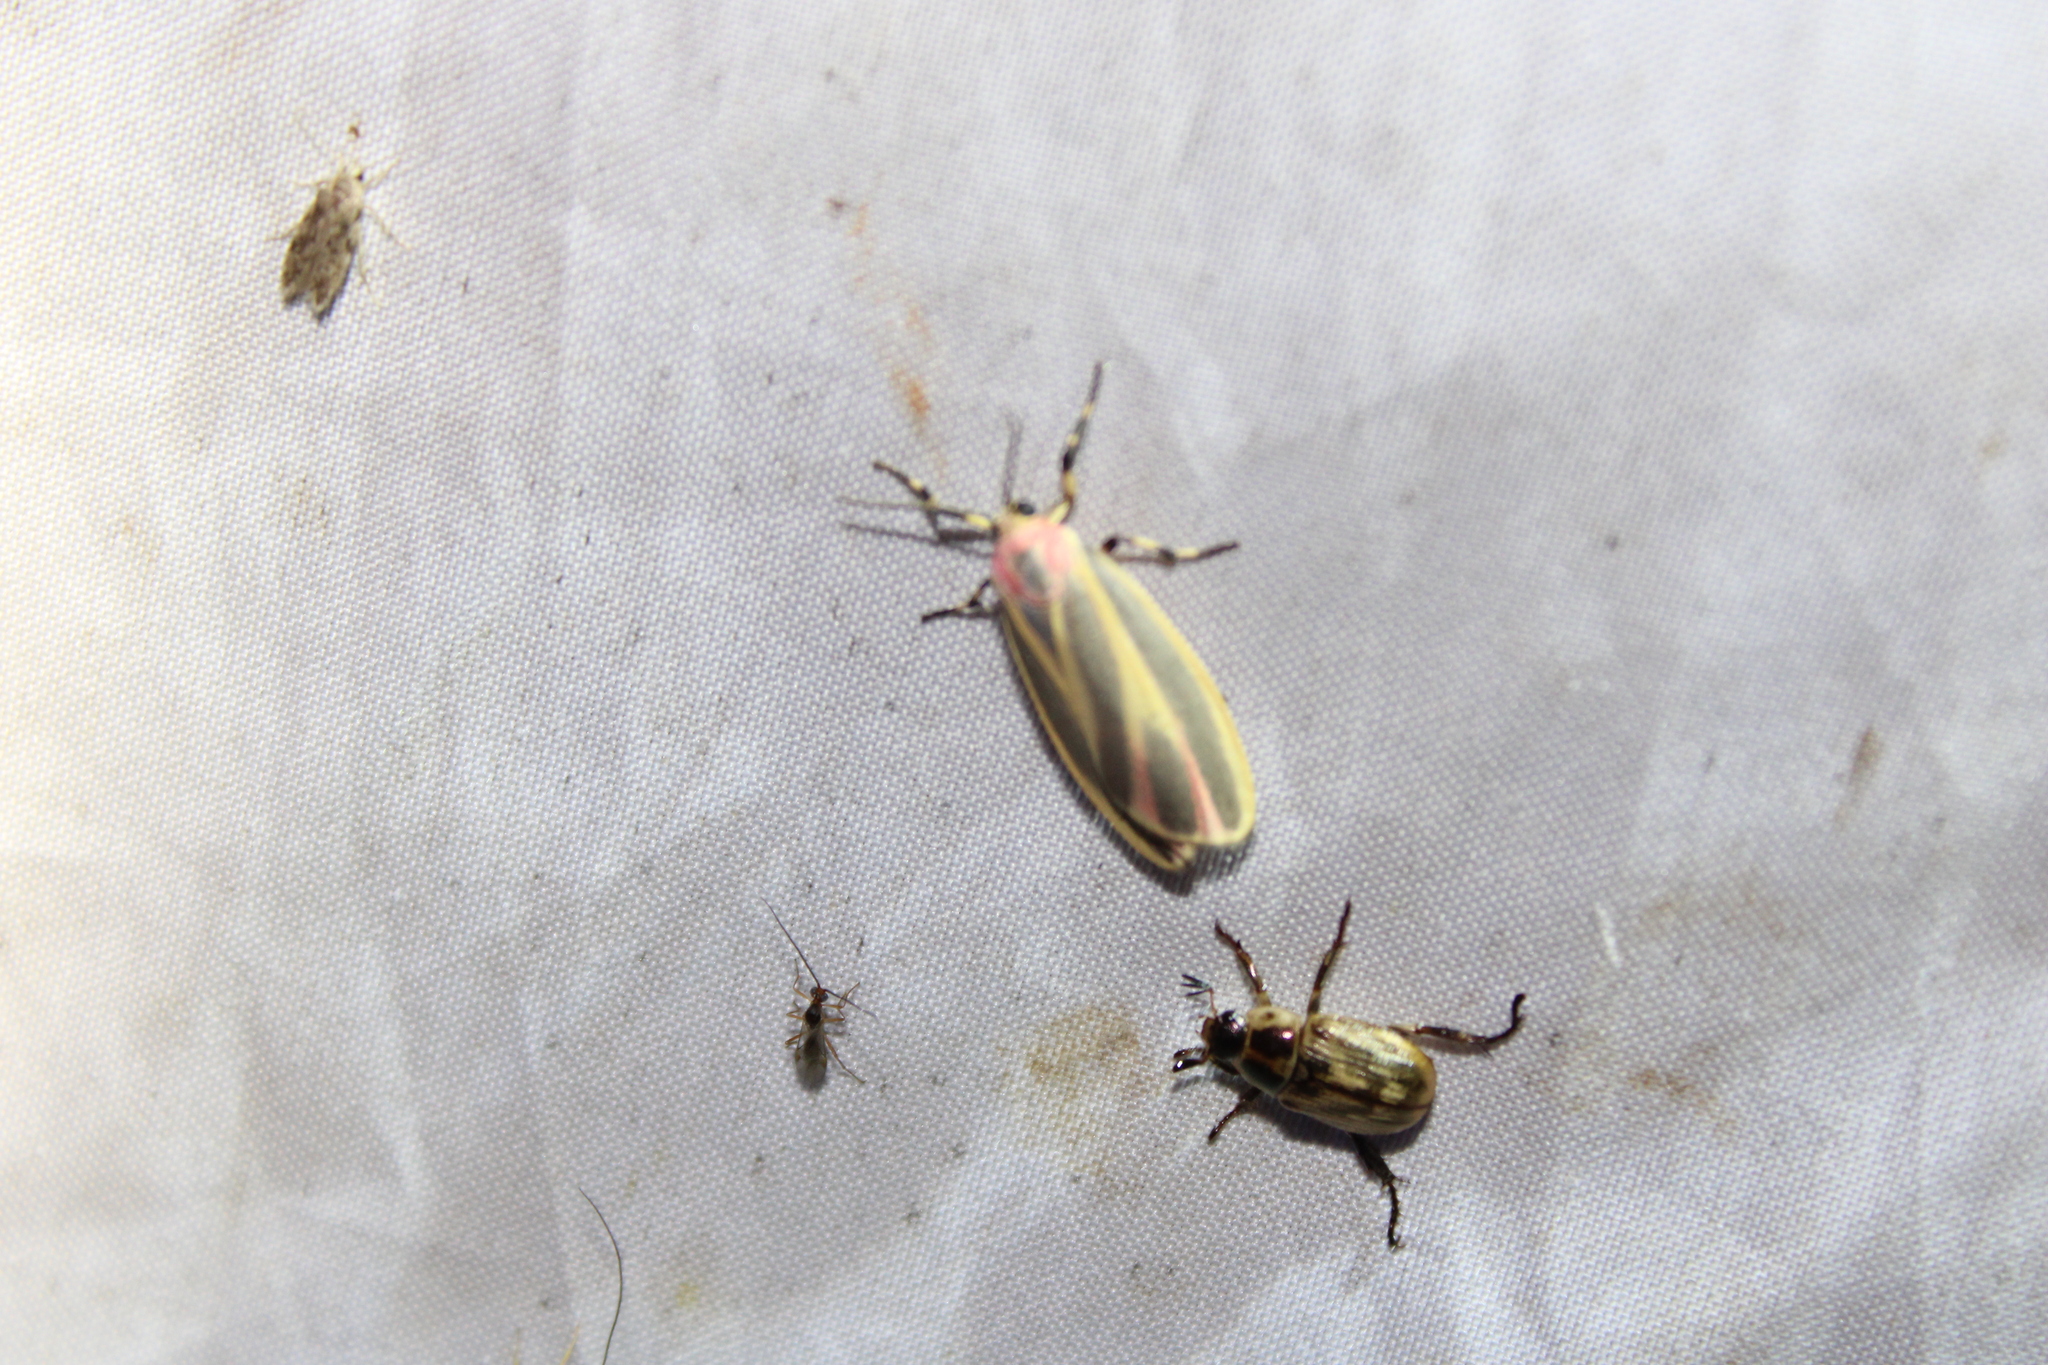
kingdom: Animalia
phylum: Arthropoda
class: Insecta
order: Lepidoptera
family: Erebidae
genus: Hypoprepia
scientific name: Hypoprepia fucosa
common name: Painted lichen moth
